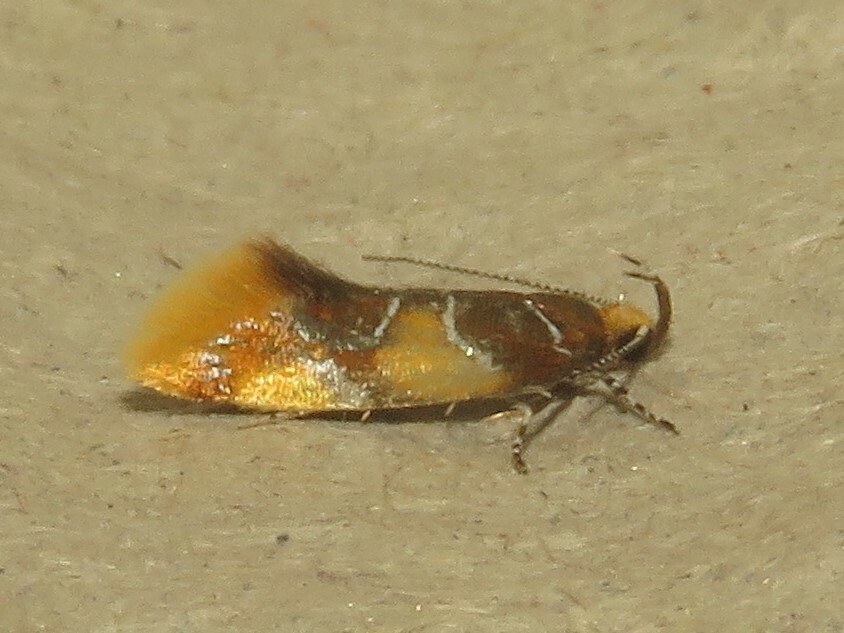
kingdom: Animalia
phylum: Arthropoda
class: Insecta
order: Lepidoptera
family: Oecophoridae
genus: Callima
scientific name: Callima argenticinctella
